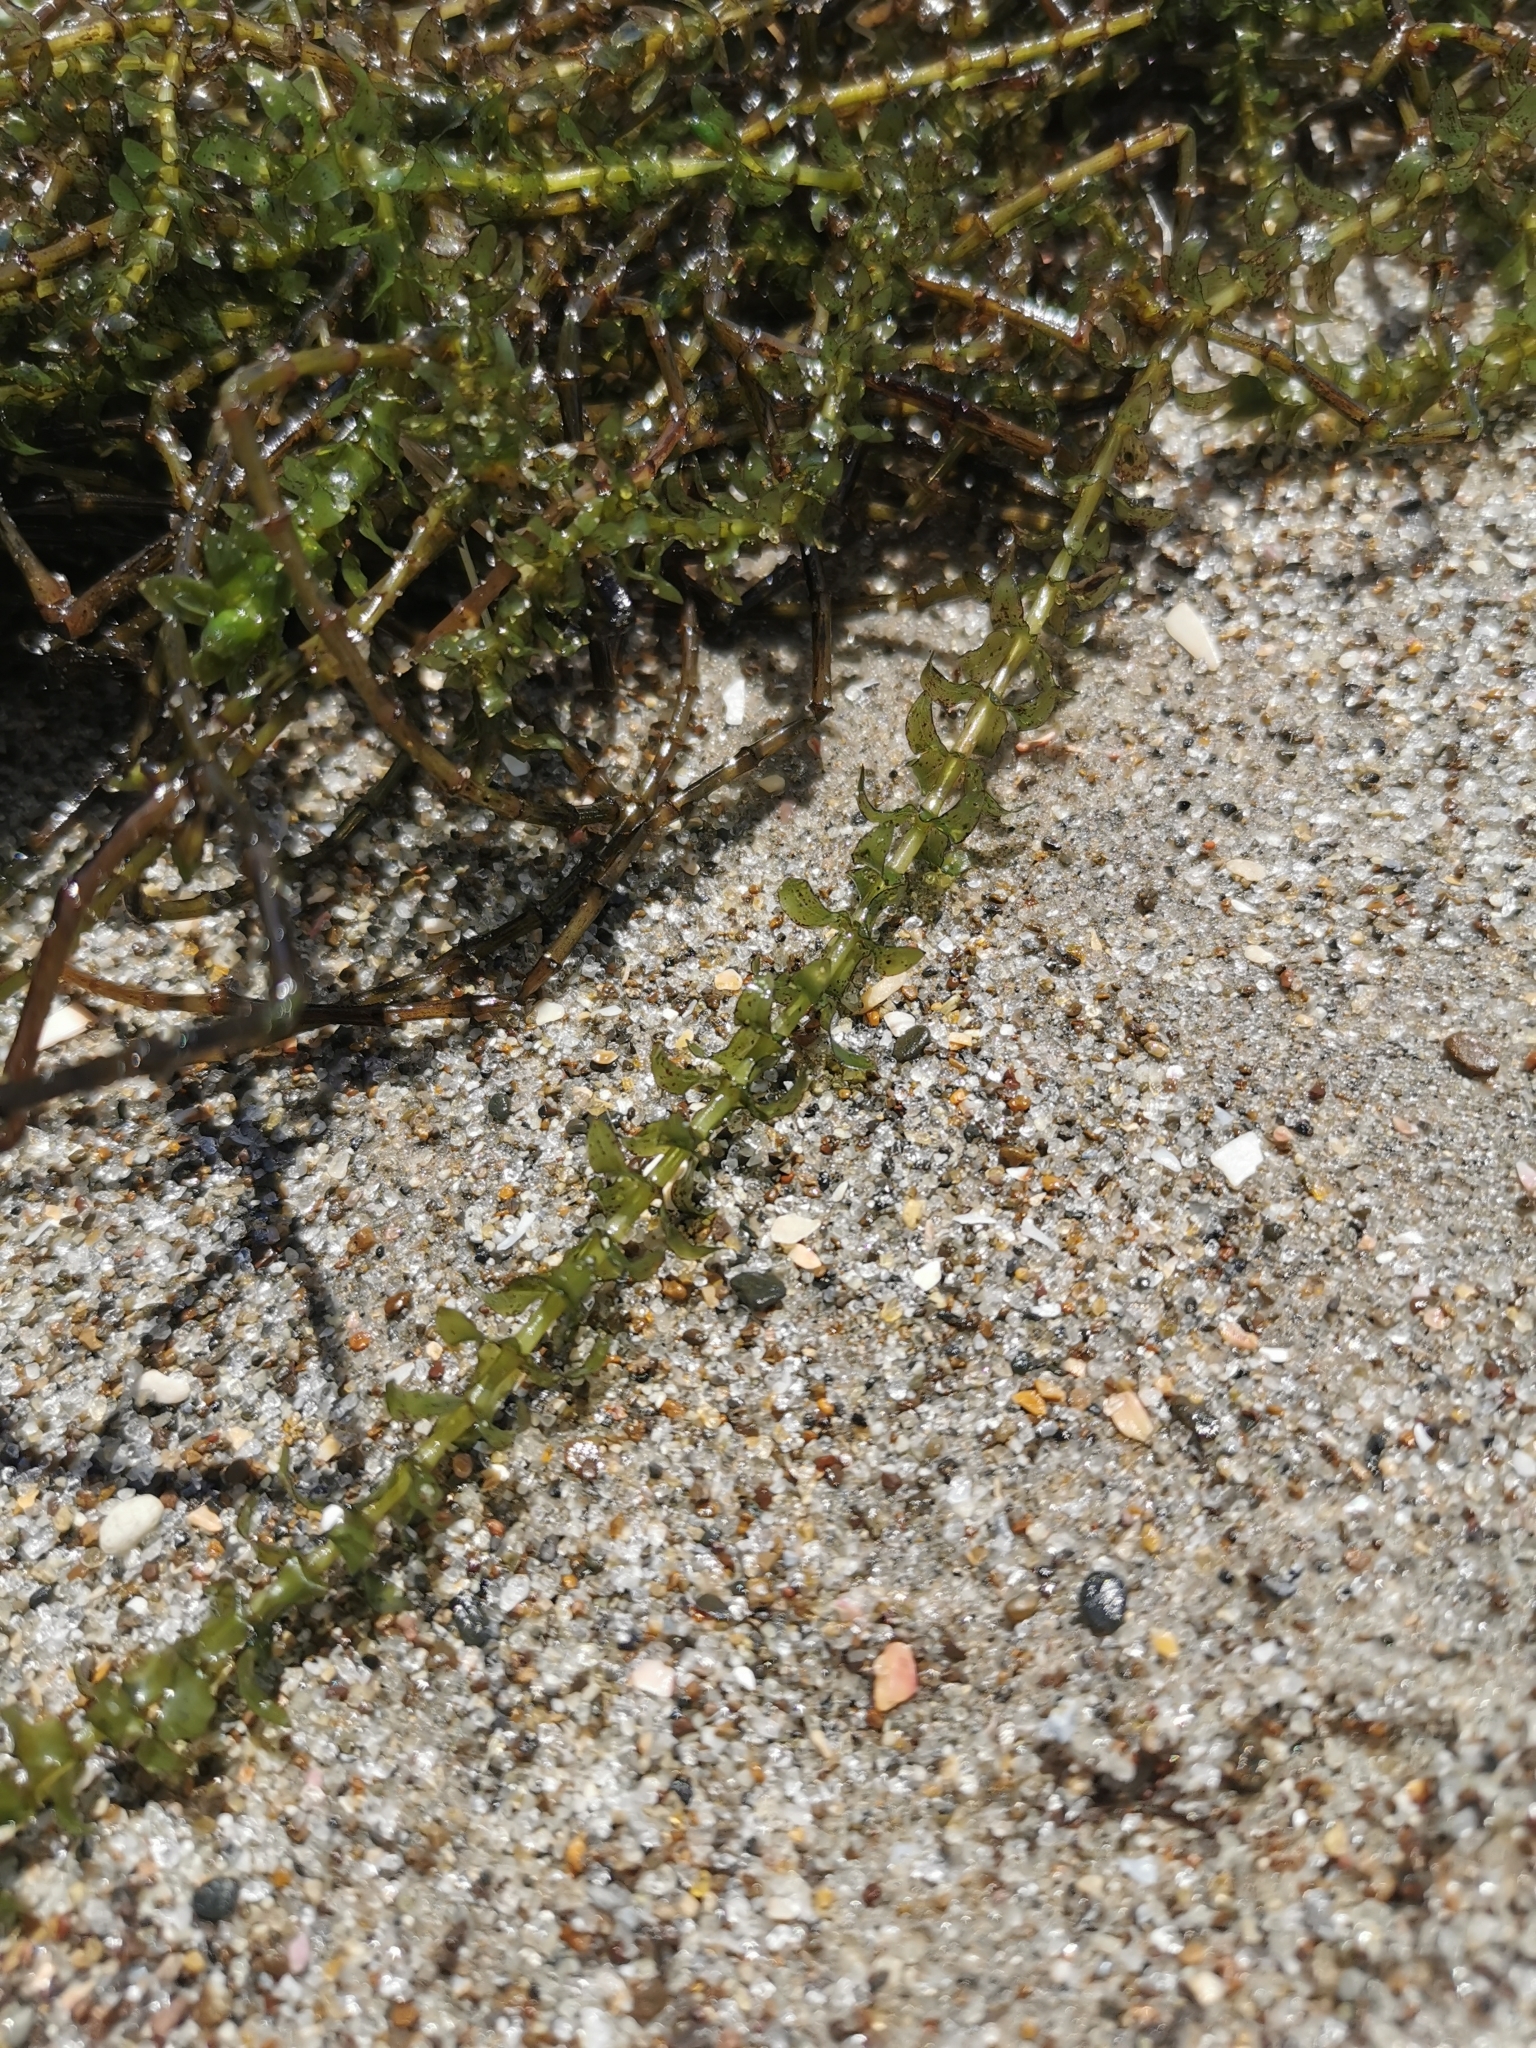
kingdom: Plantae
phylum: Tracheophyta
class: Liliopsida
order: Alismatales
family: Hydrocharitaceae
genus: Elodea
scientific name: Elodea canadensis
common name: Canadian waterweed
